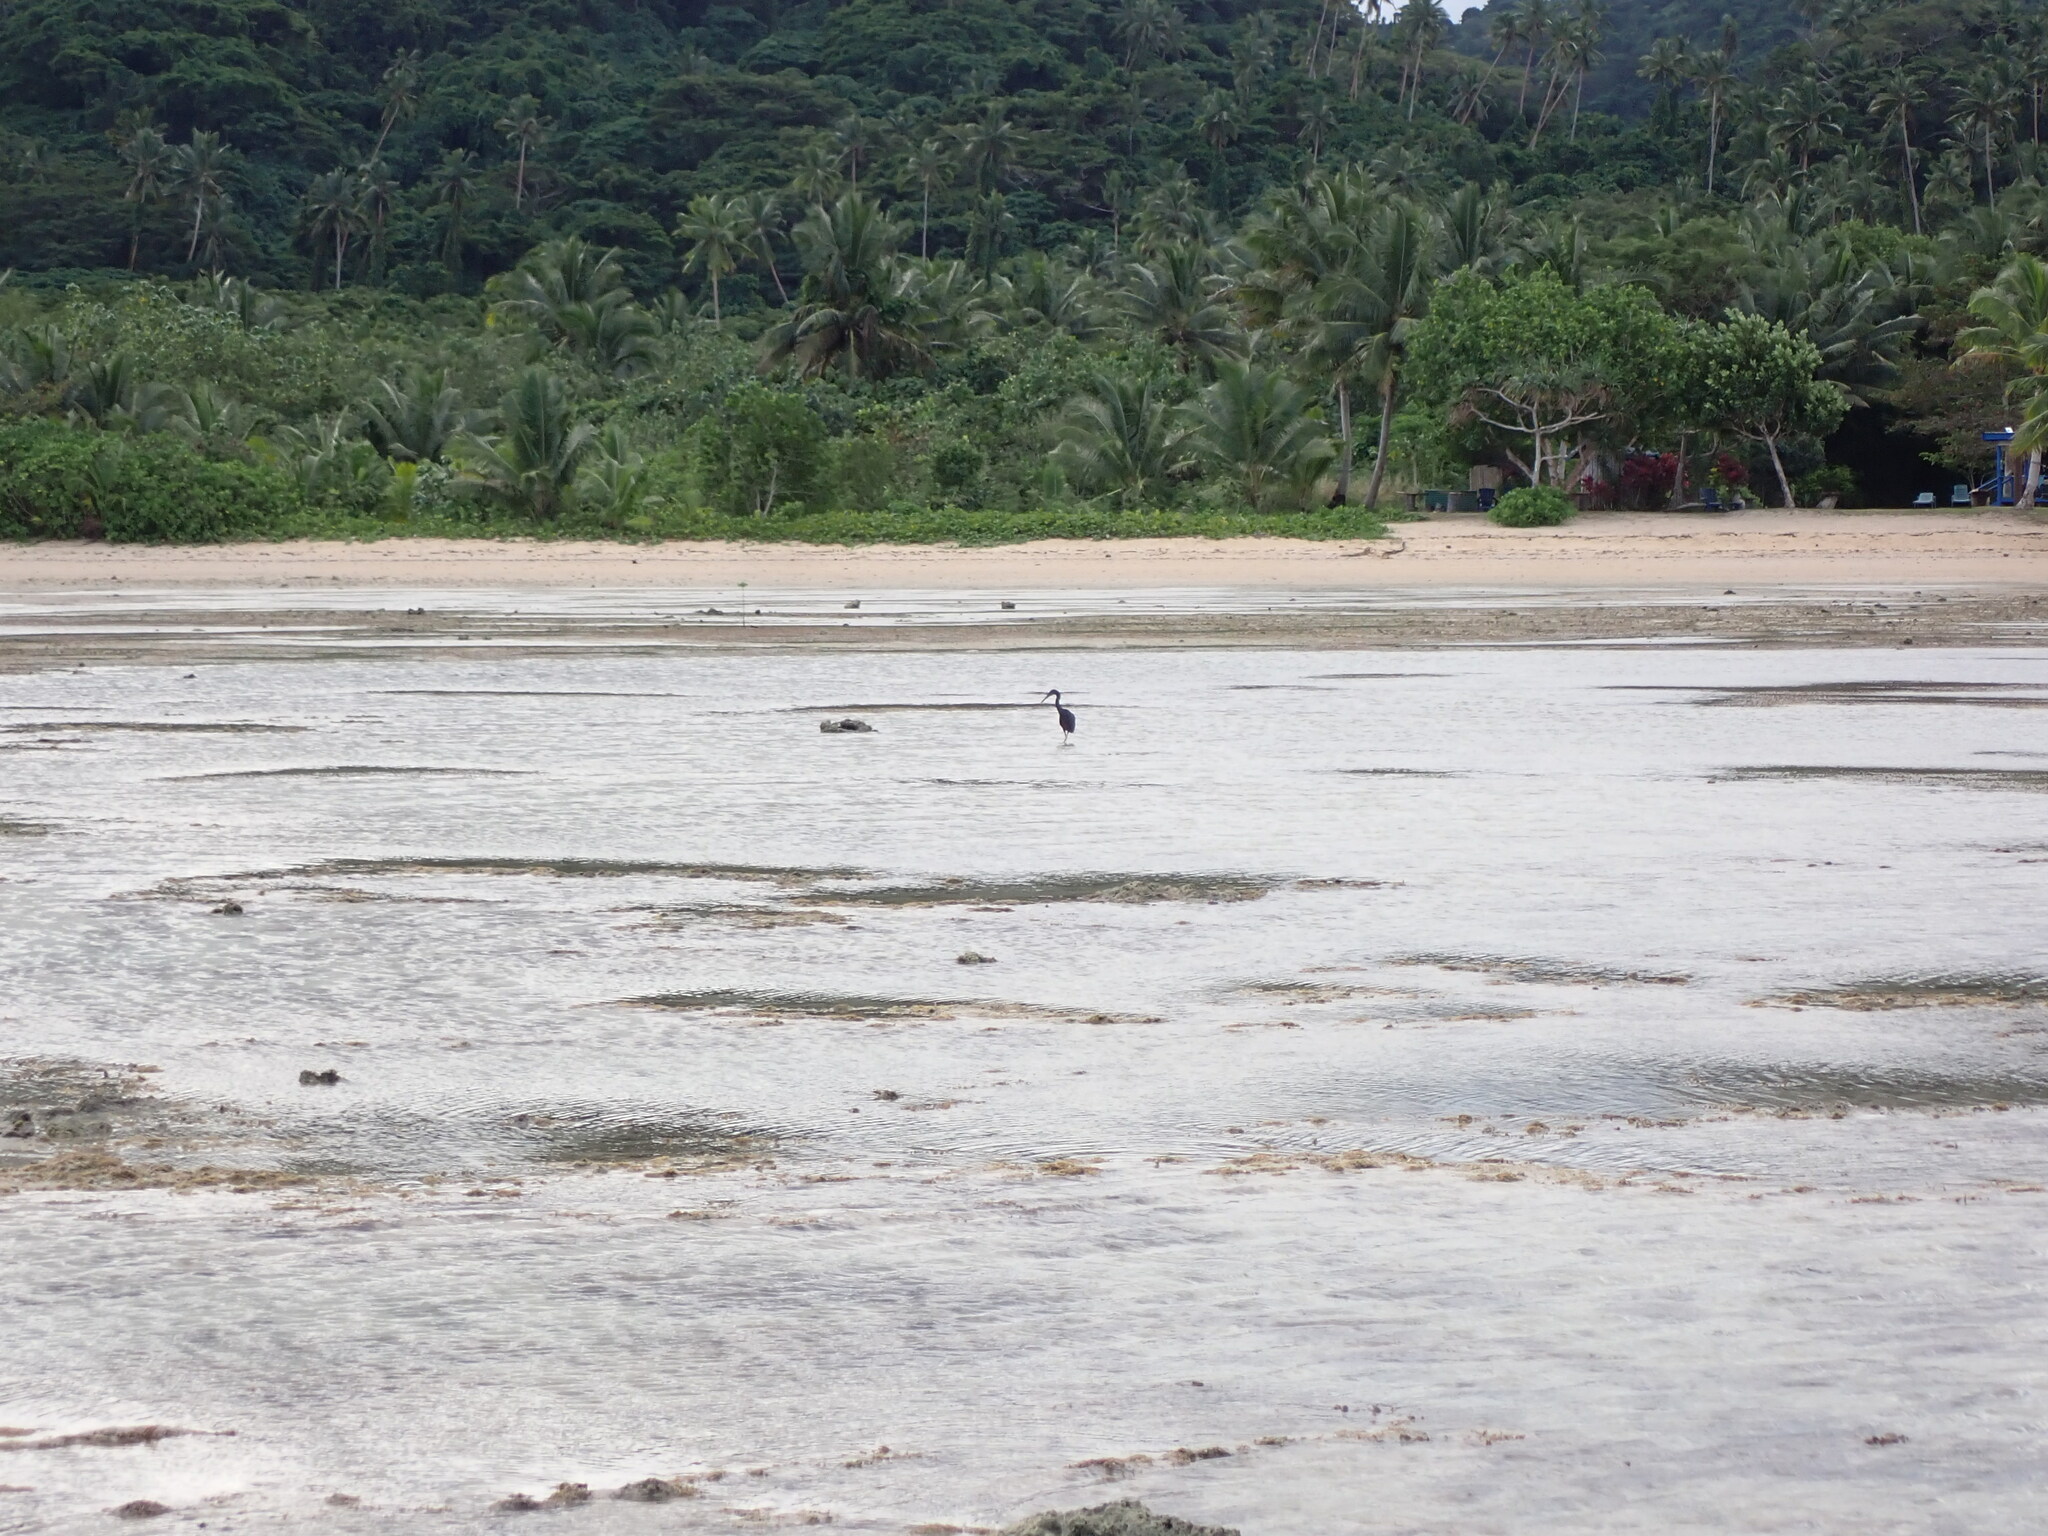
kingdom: Animalia
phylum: Chordata
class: Aves
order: Pelecaniformes
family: Ardeidae
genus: Egretta
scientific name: Egretta sacra
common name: Pacific reef heron
